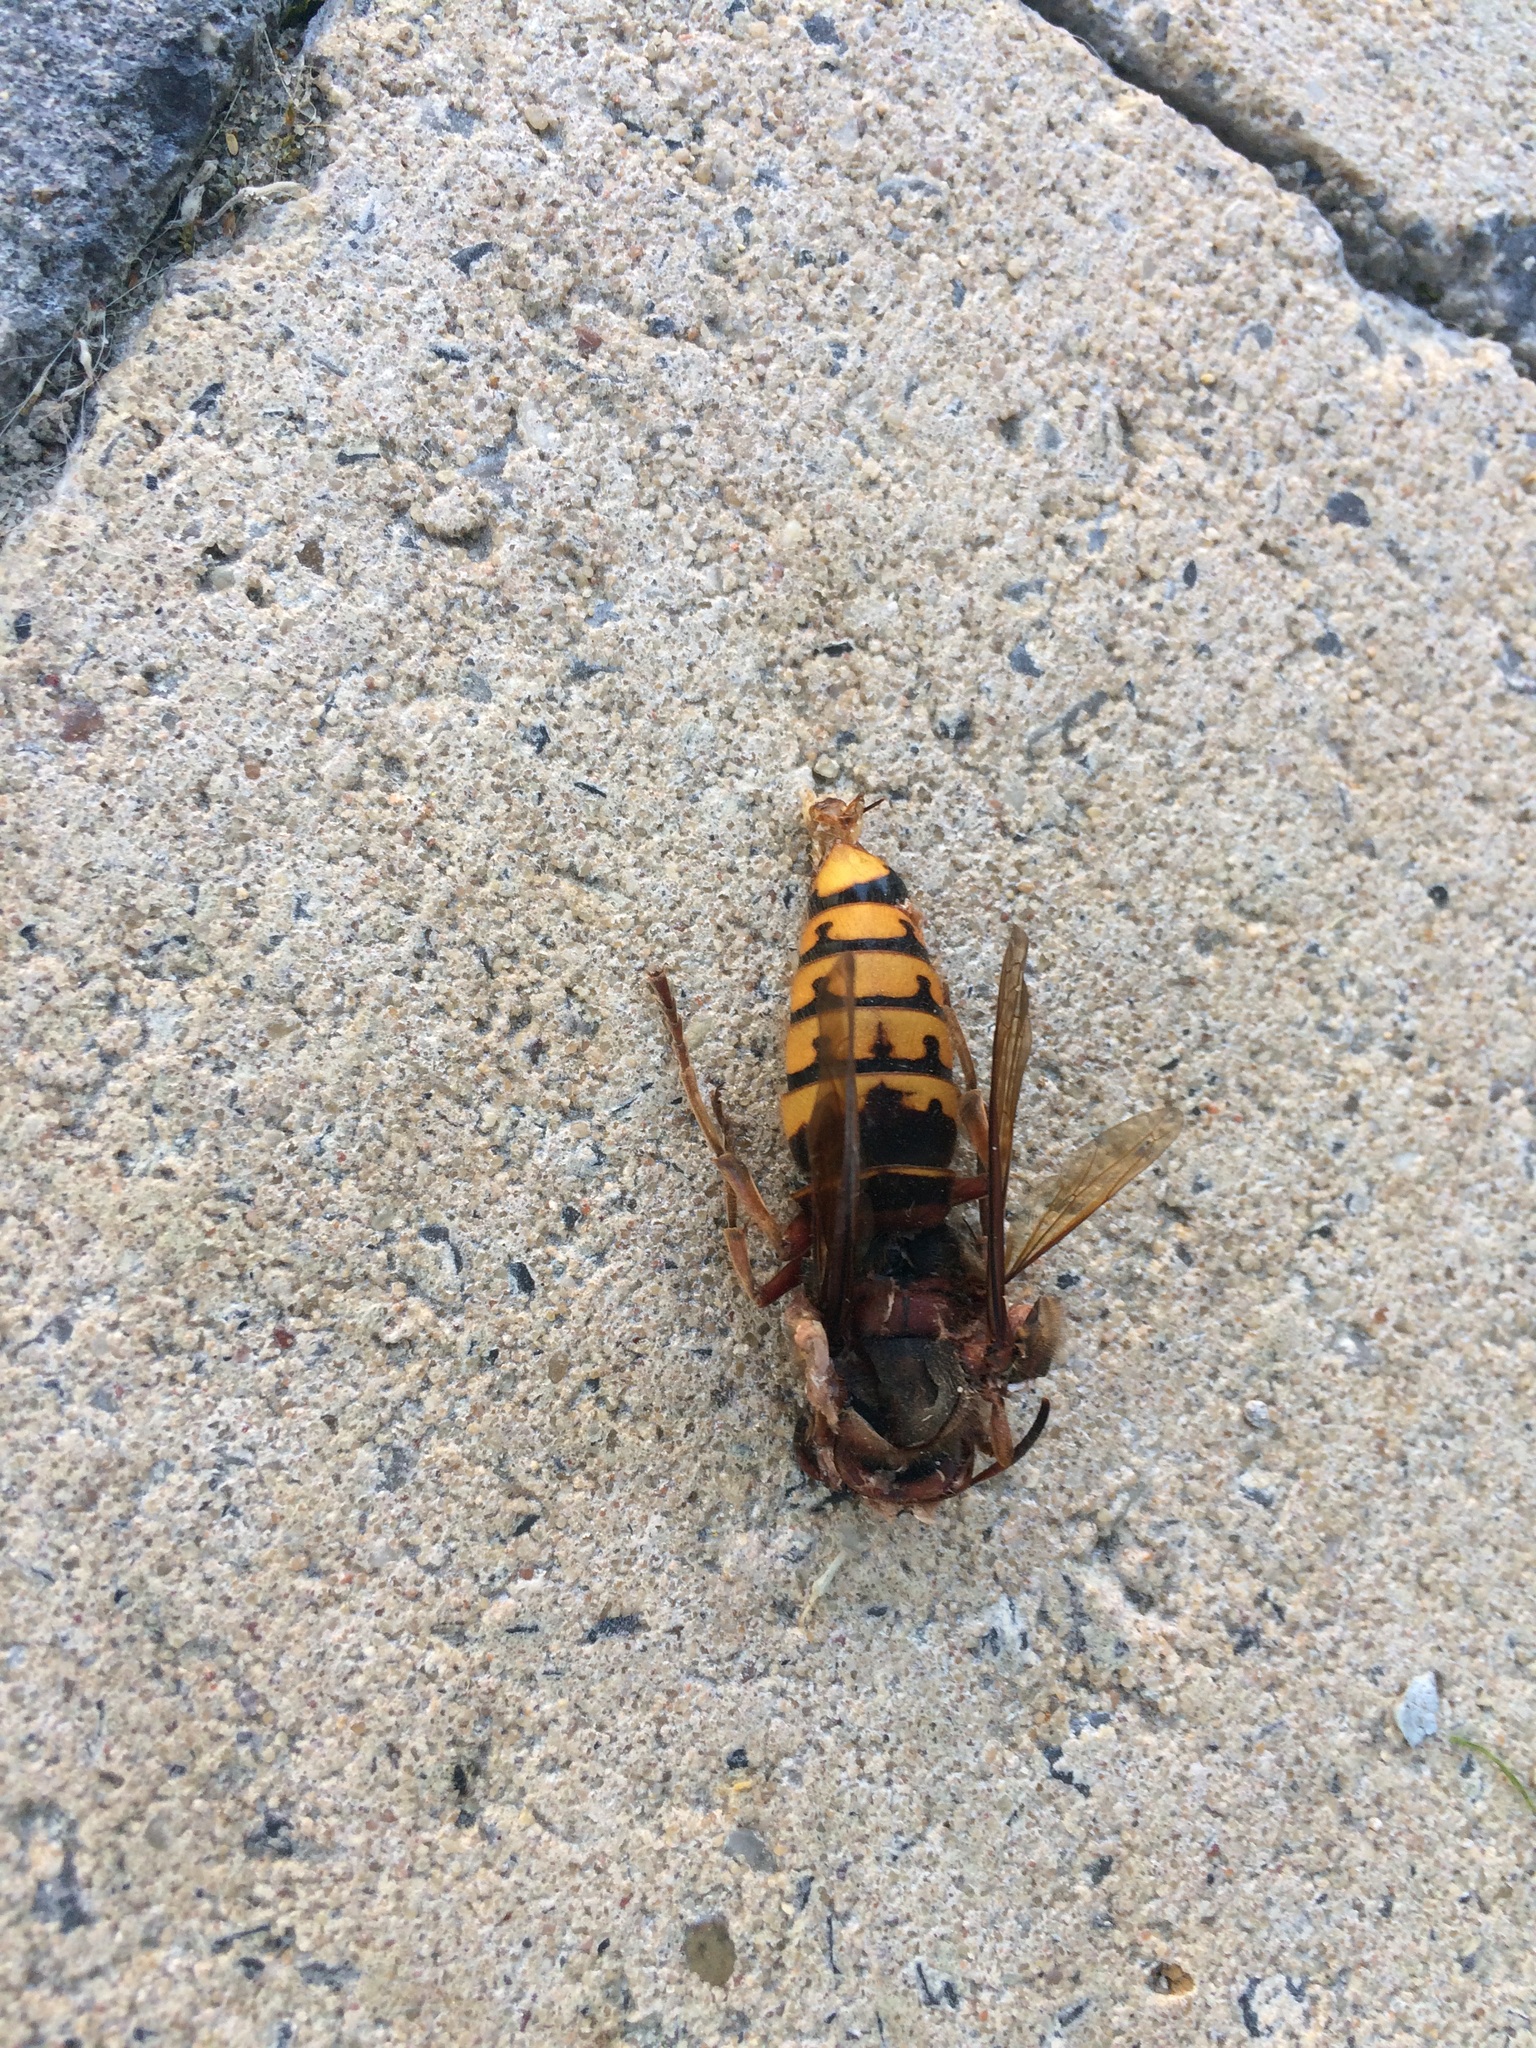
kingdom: Animalia
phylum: Arthropoda
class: Insecta
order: Hymenoptera
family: Vespidae
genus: Vespa
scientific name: Vespa crabro
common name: Hornet
